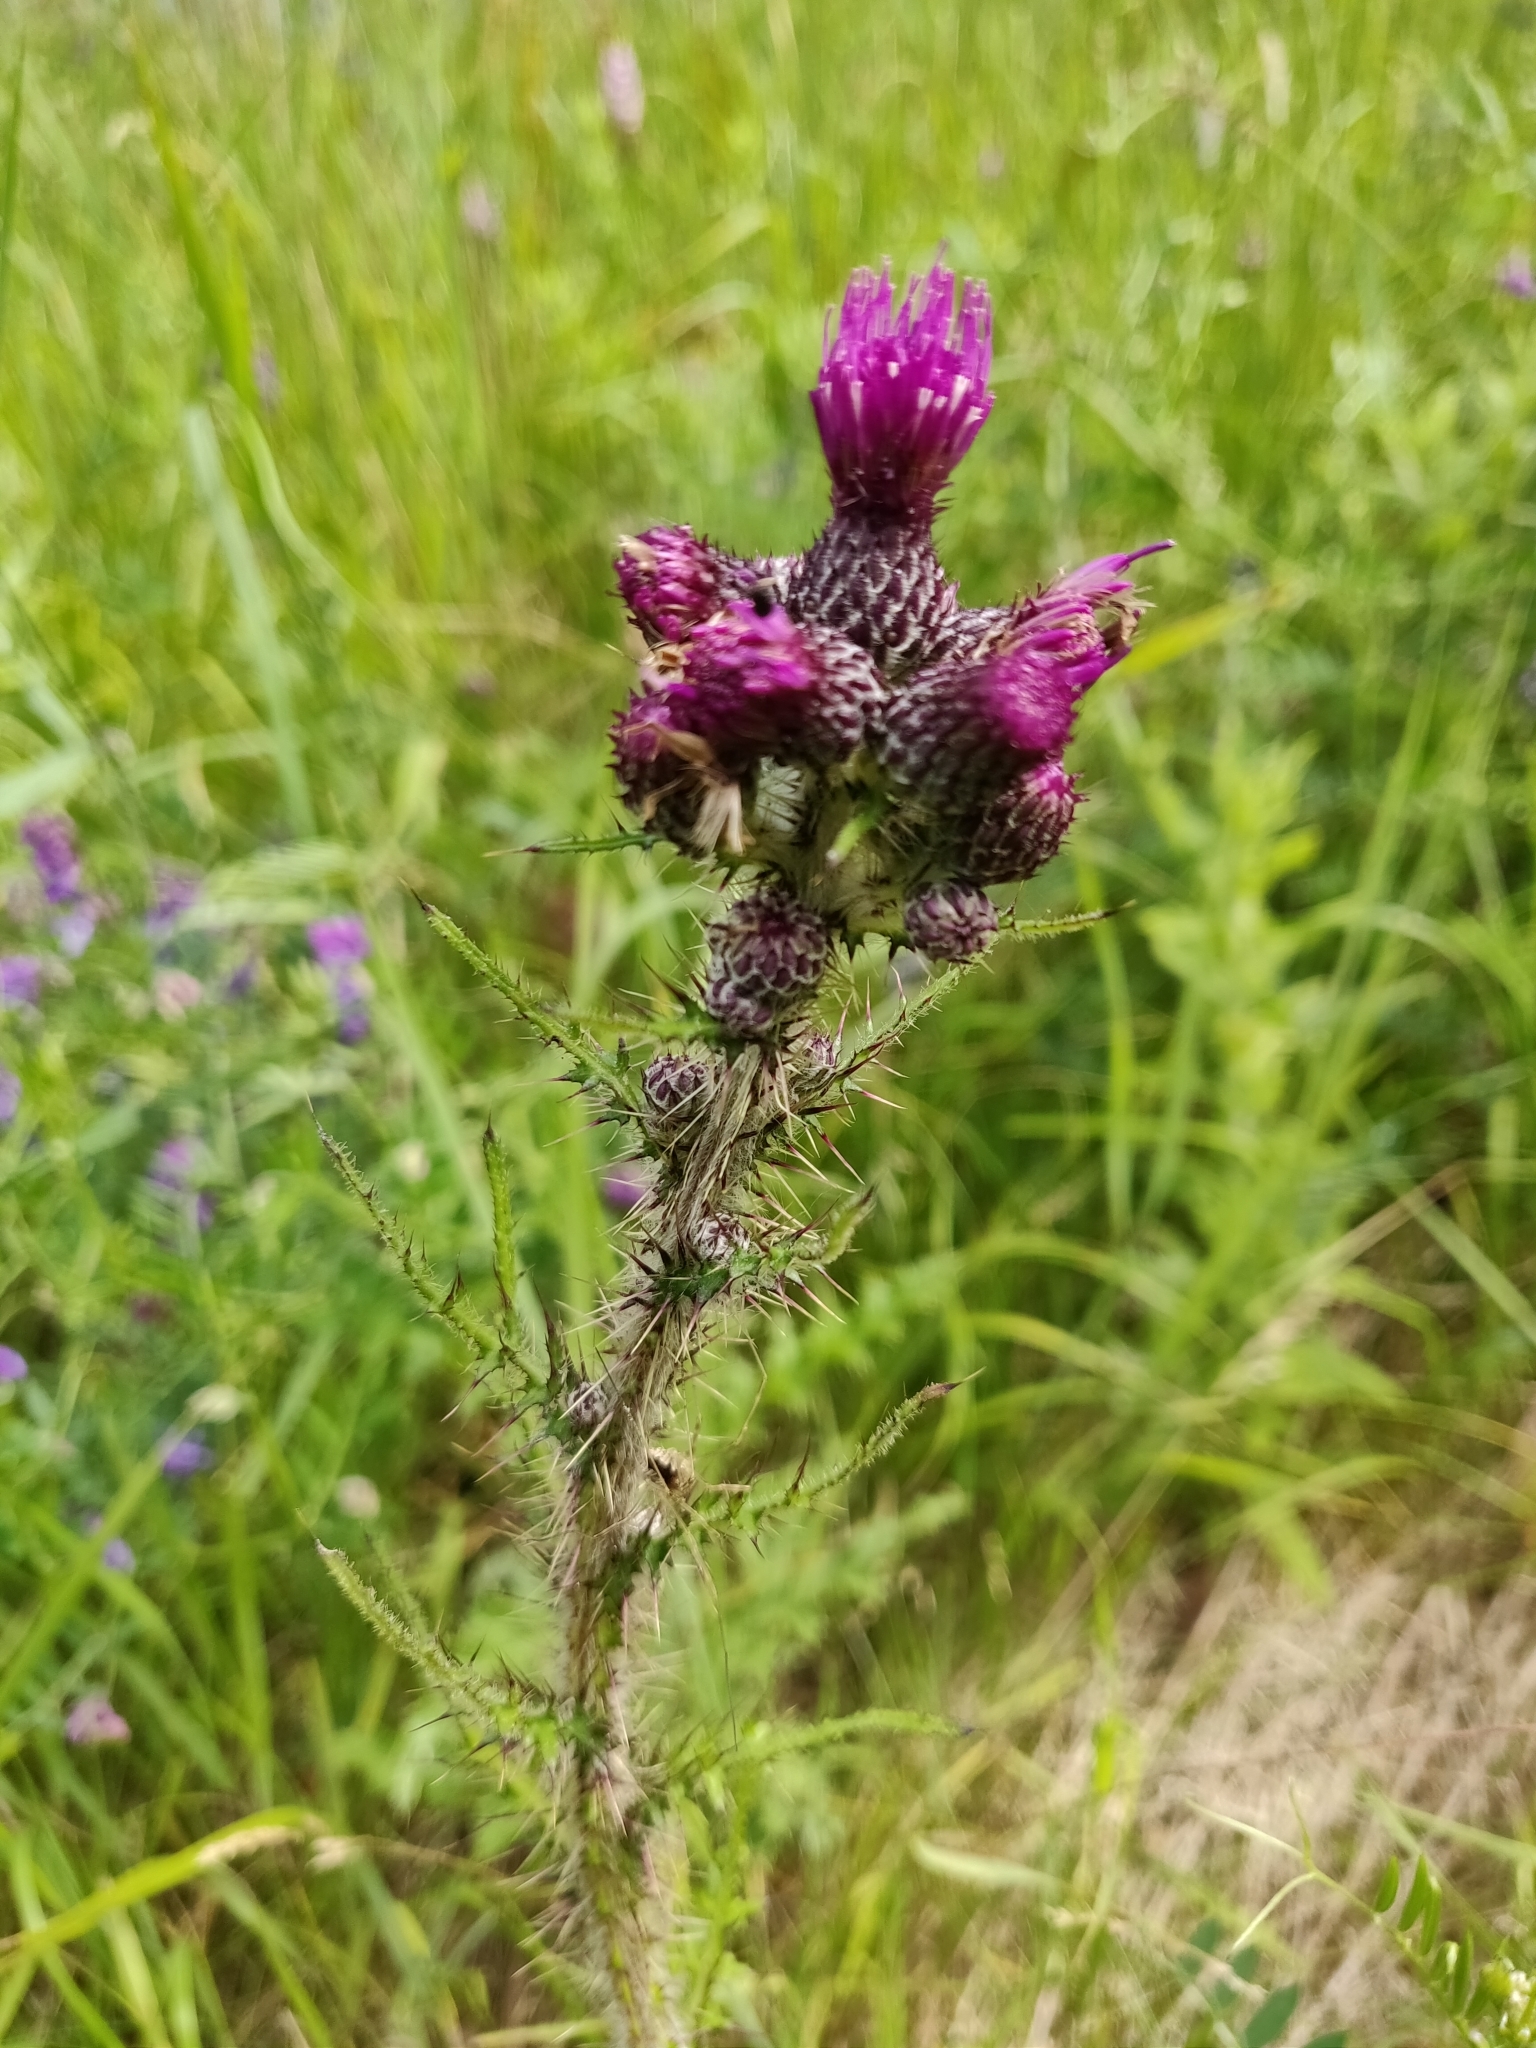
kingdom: Plantae
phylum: Tracheophyta
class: Magnoliopsida
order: Asterales
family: Asteraceae
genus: Cirsium
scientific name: Cirsium palustre
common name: Marsh thistle
